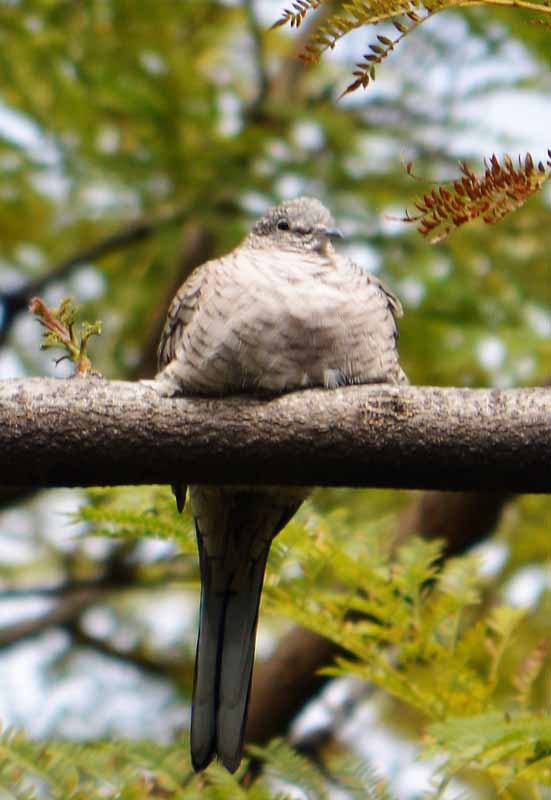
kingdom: Animalia
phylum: Chordata
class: Aves
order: Columbiformes
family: Columbidae
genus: Columbina
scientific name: Columbina inca
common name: Inca dove
